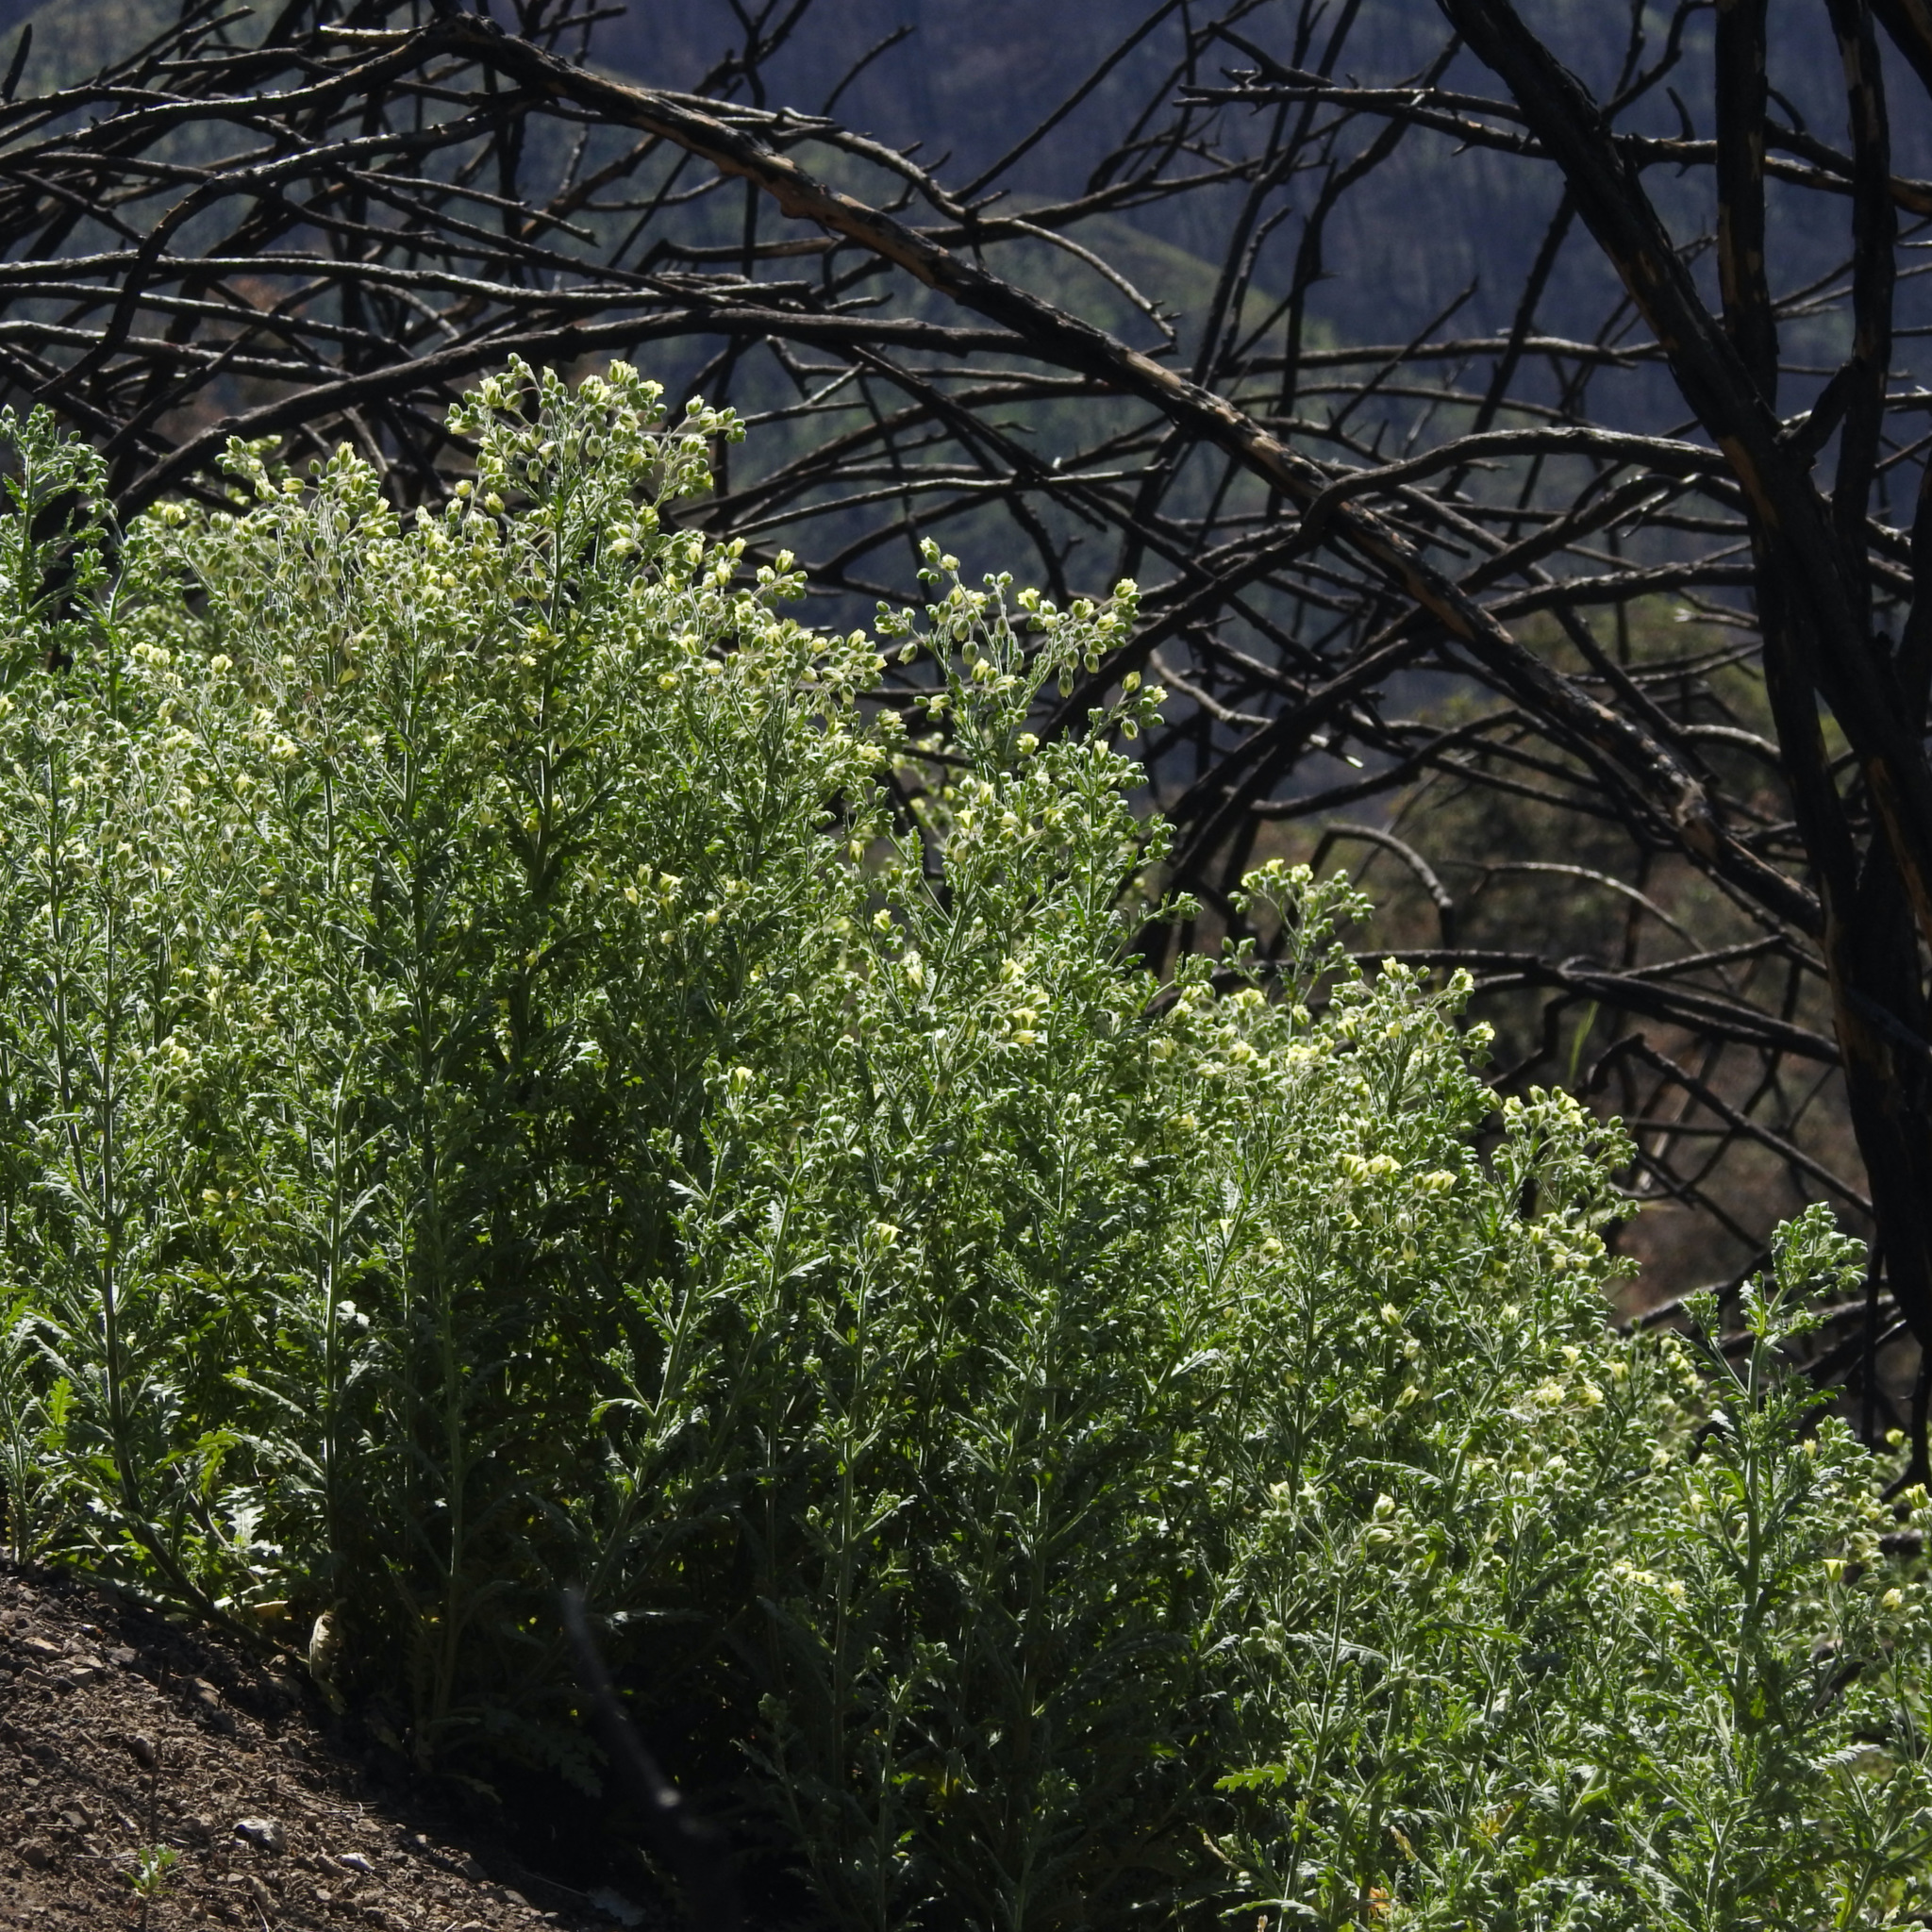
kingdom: Plantae
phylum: Tracheophyta
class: Magnoliopsida
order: Boraginales
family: Hydrophyllaceae
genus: Emmenanthe
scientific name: Emmenanthe penduliflora
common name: Whispering-bells
